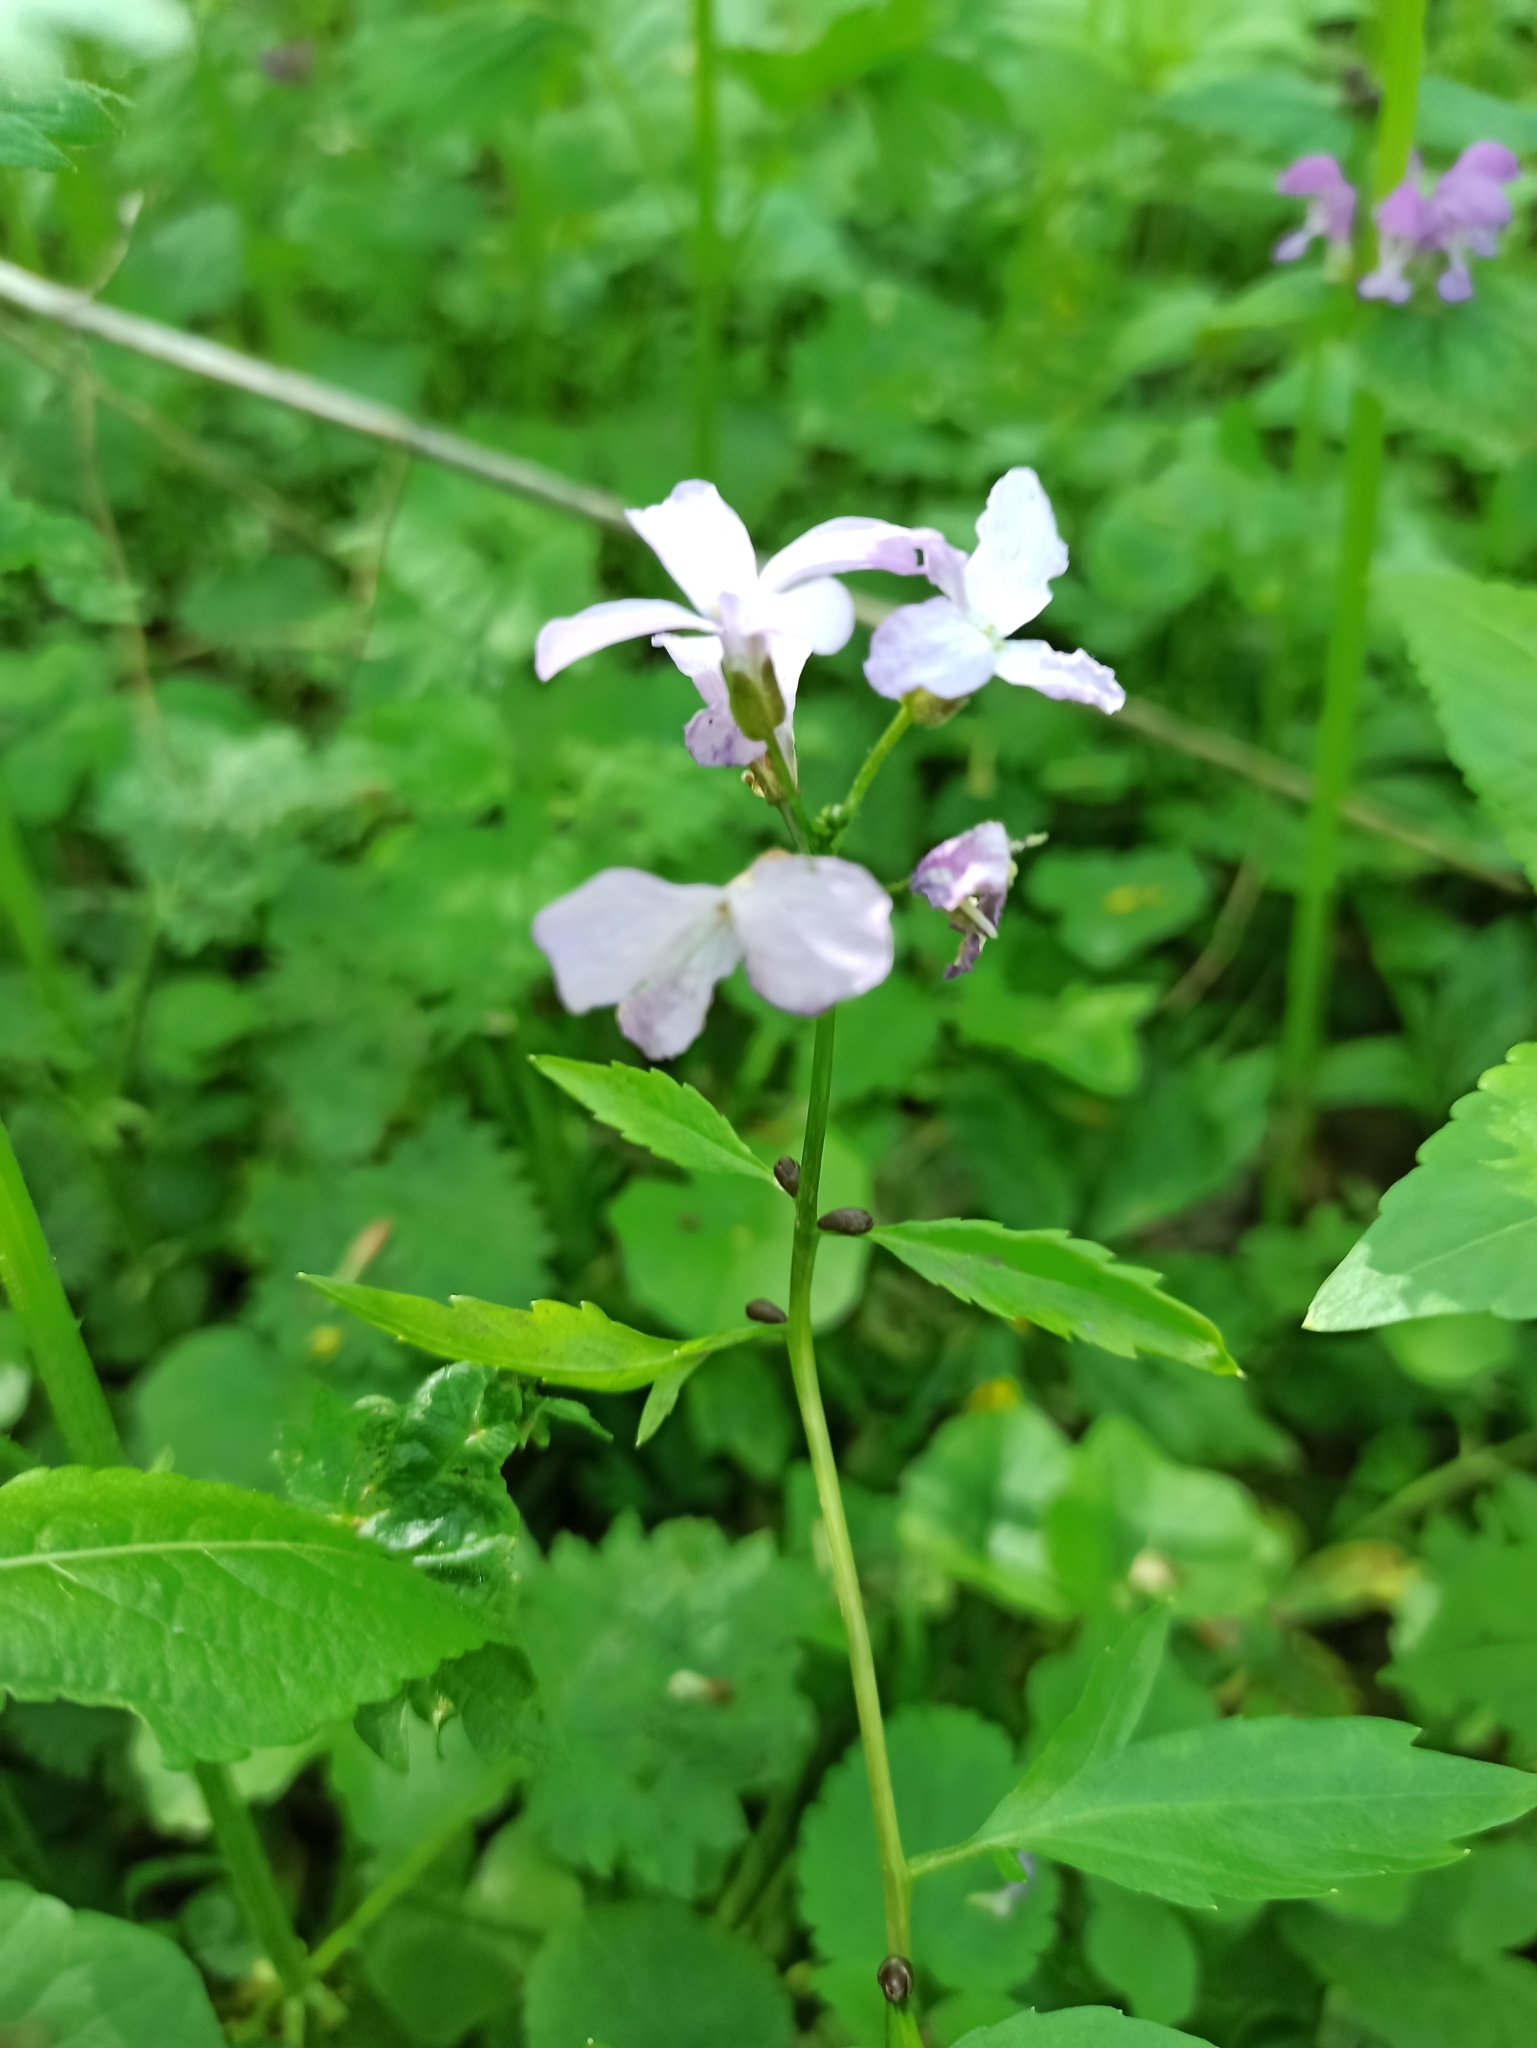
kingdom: Plantae
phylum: Tracheophyta
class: Magnoliopsida
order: Brassicales
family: Brassicaceae
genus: Cardamine
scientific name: Cardamine bulbifera
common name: Coralroot bittercress
